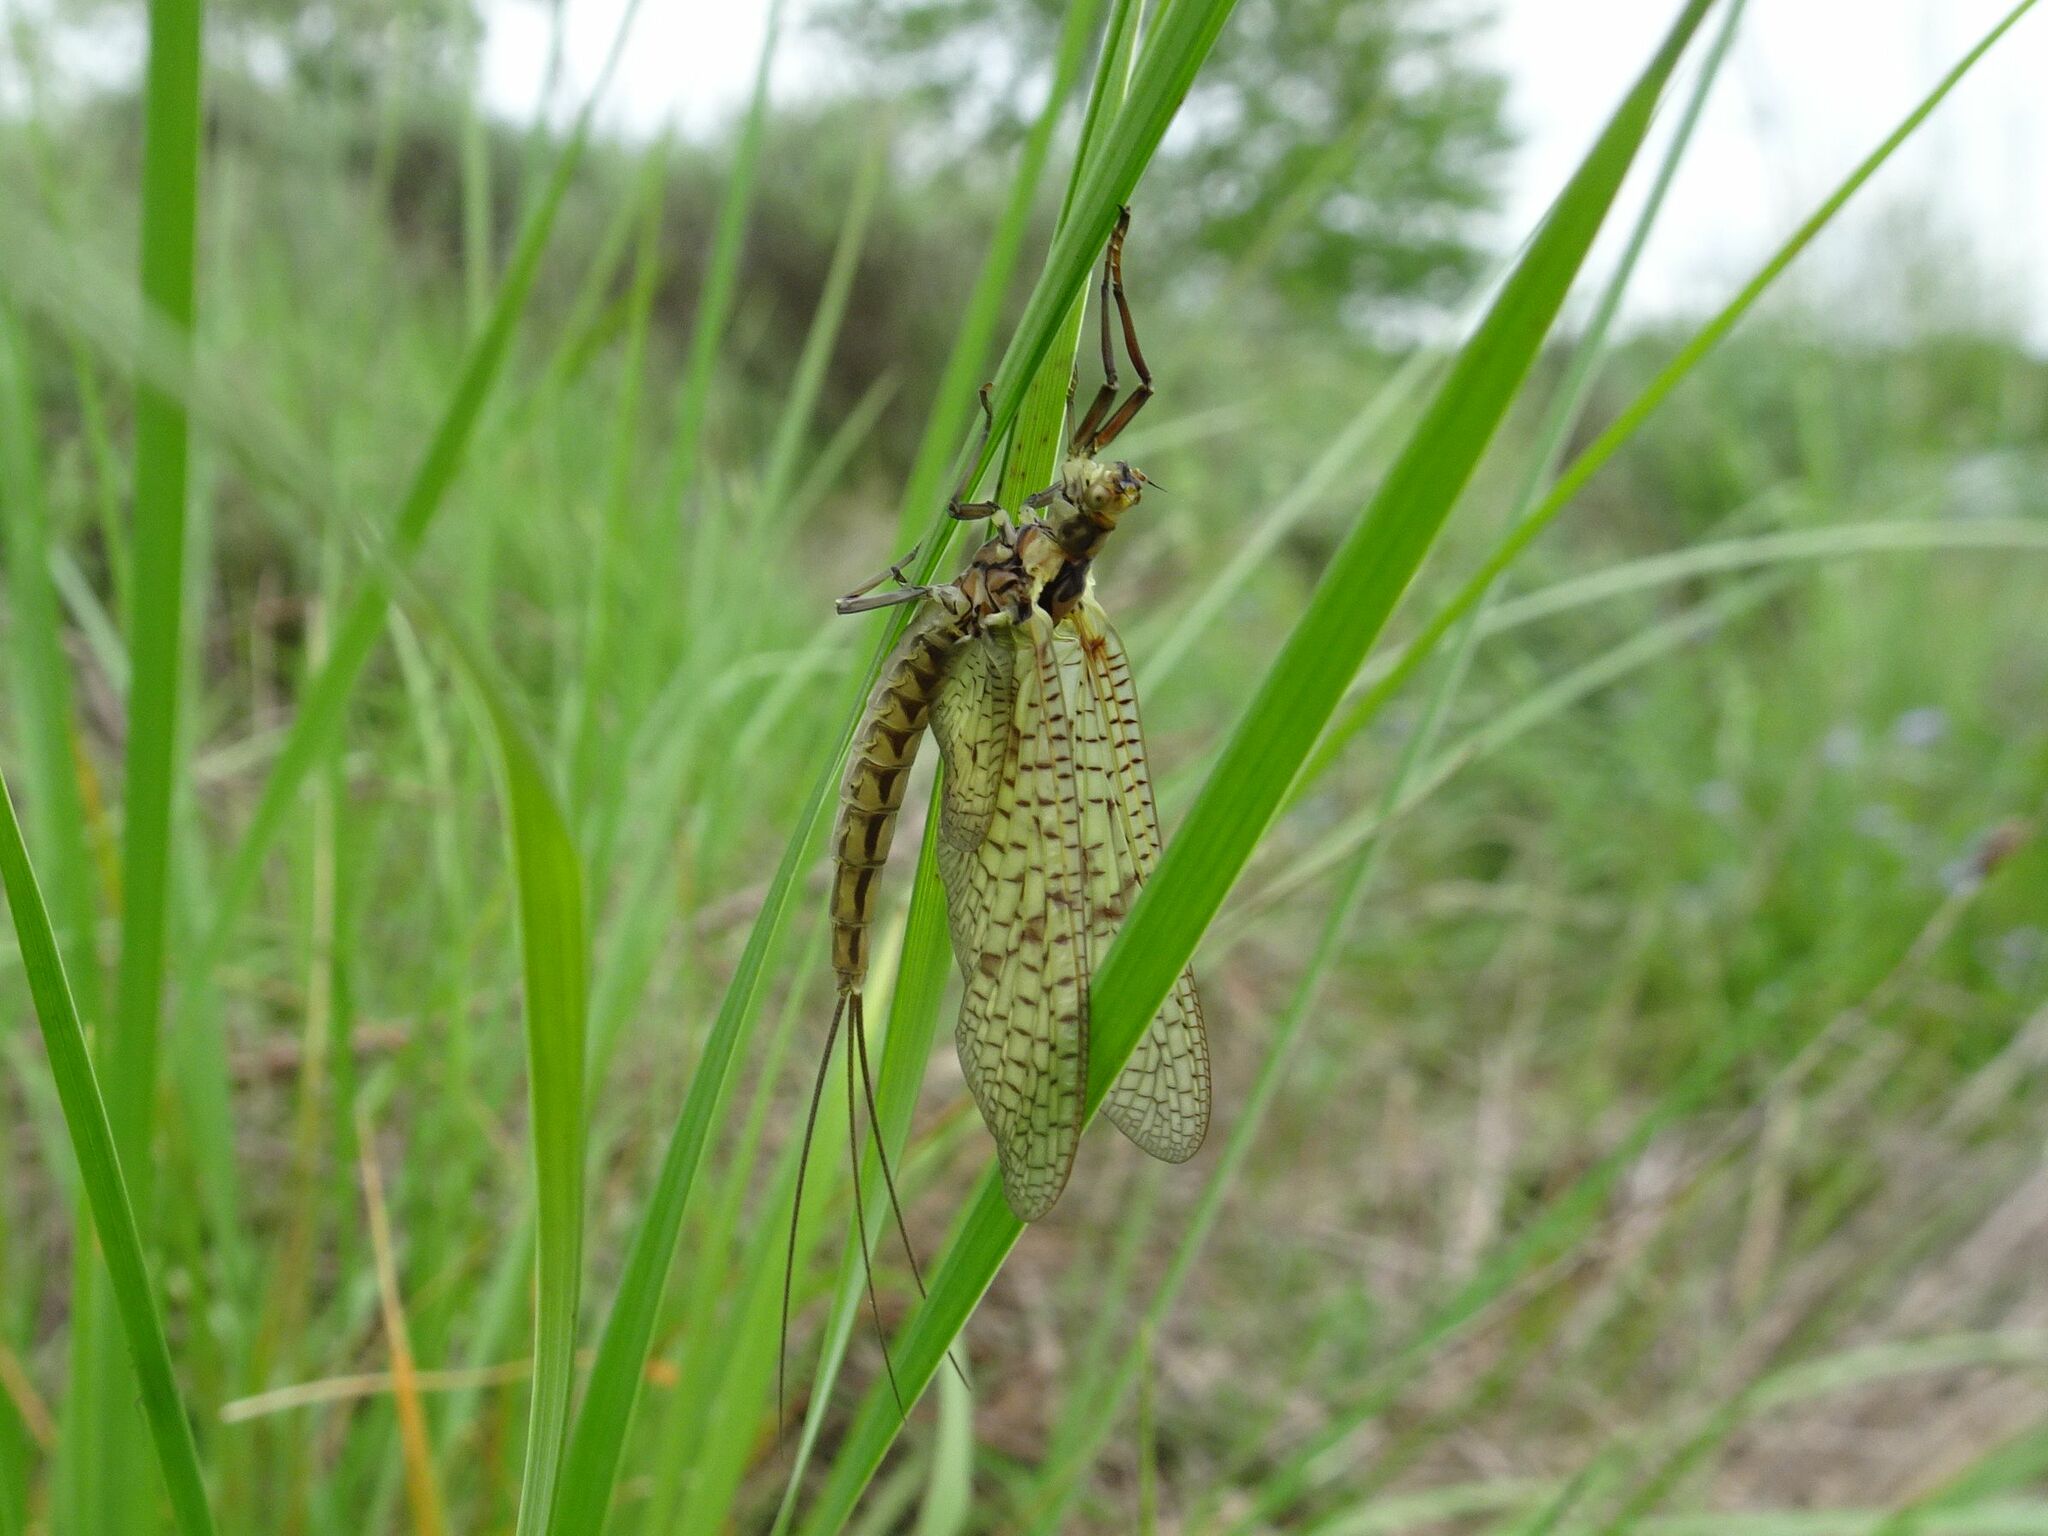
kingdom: Animalia
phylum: Arthropoda
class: Insecta
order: Ephemeroptera
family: Ephemeridae
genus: Ephemera
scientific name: Ephemera vulgata
